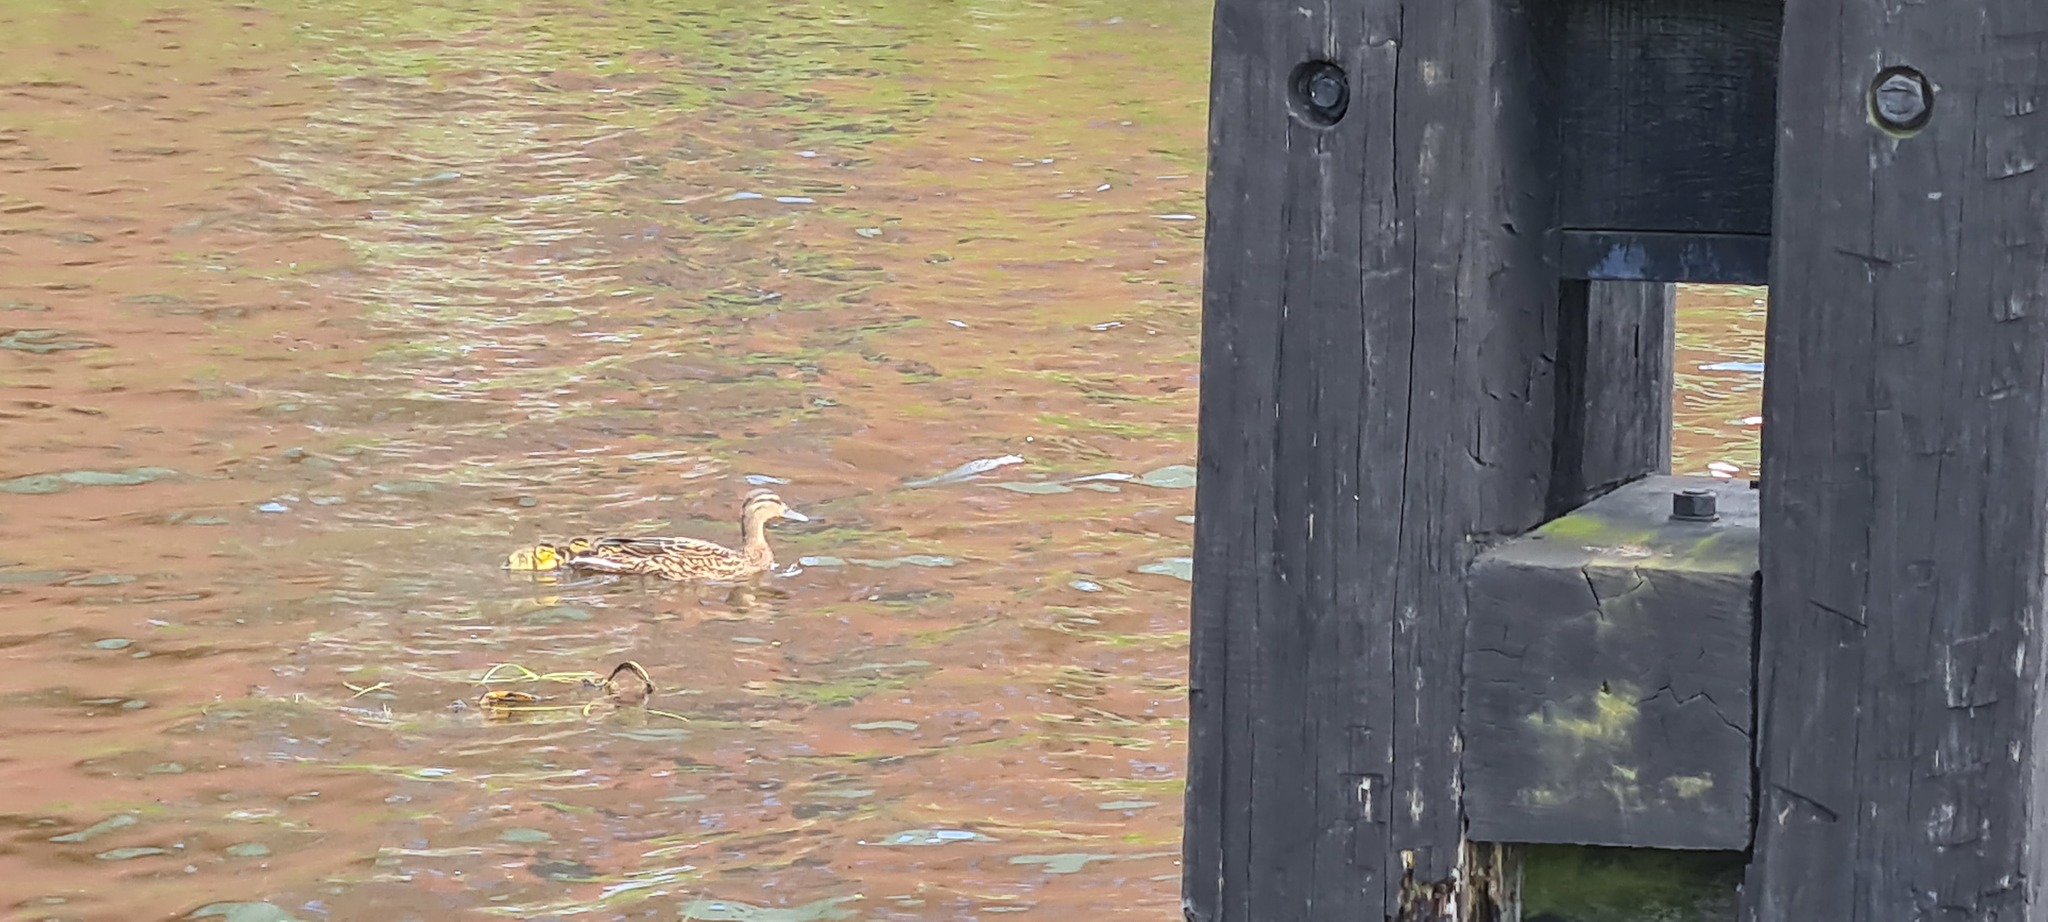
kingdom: Animalia
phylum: Chordata
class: Aves
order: Anseriformes
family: Anatidae
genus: Anas
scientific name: Anas platyrhynchos
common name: Mallard
